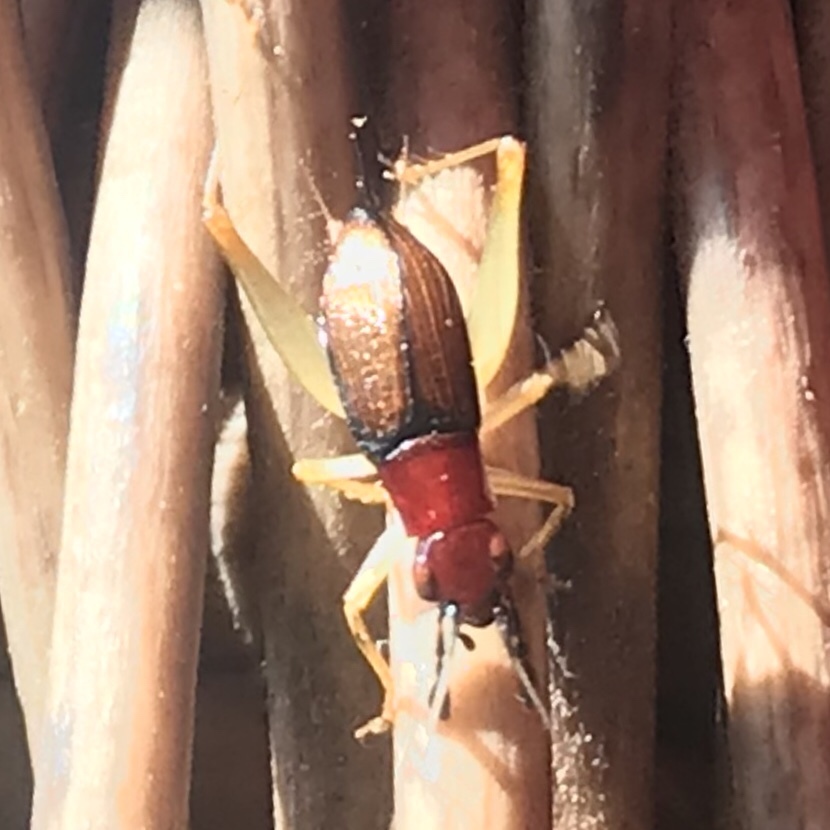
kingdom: Animalia
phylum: Arthropoda
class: Insecta
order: Orthoptera
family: Trigonidiidae
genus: Phyllopalpus
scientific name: Phyllopalpus pulchellus
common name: Handsome trig
